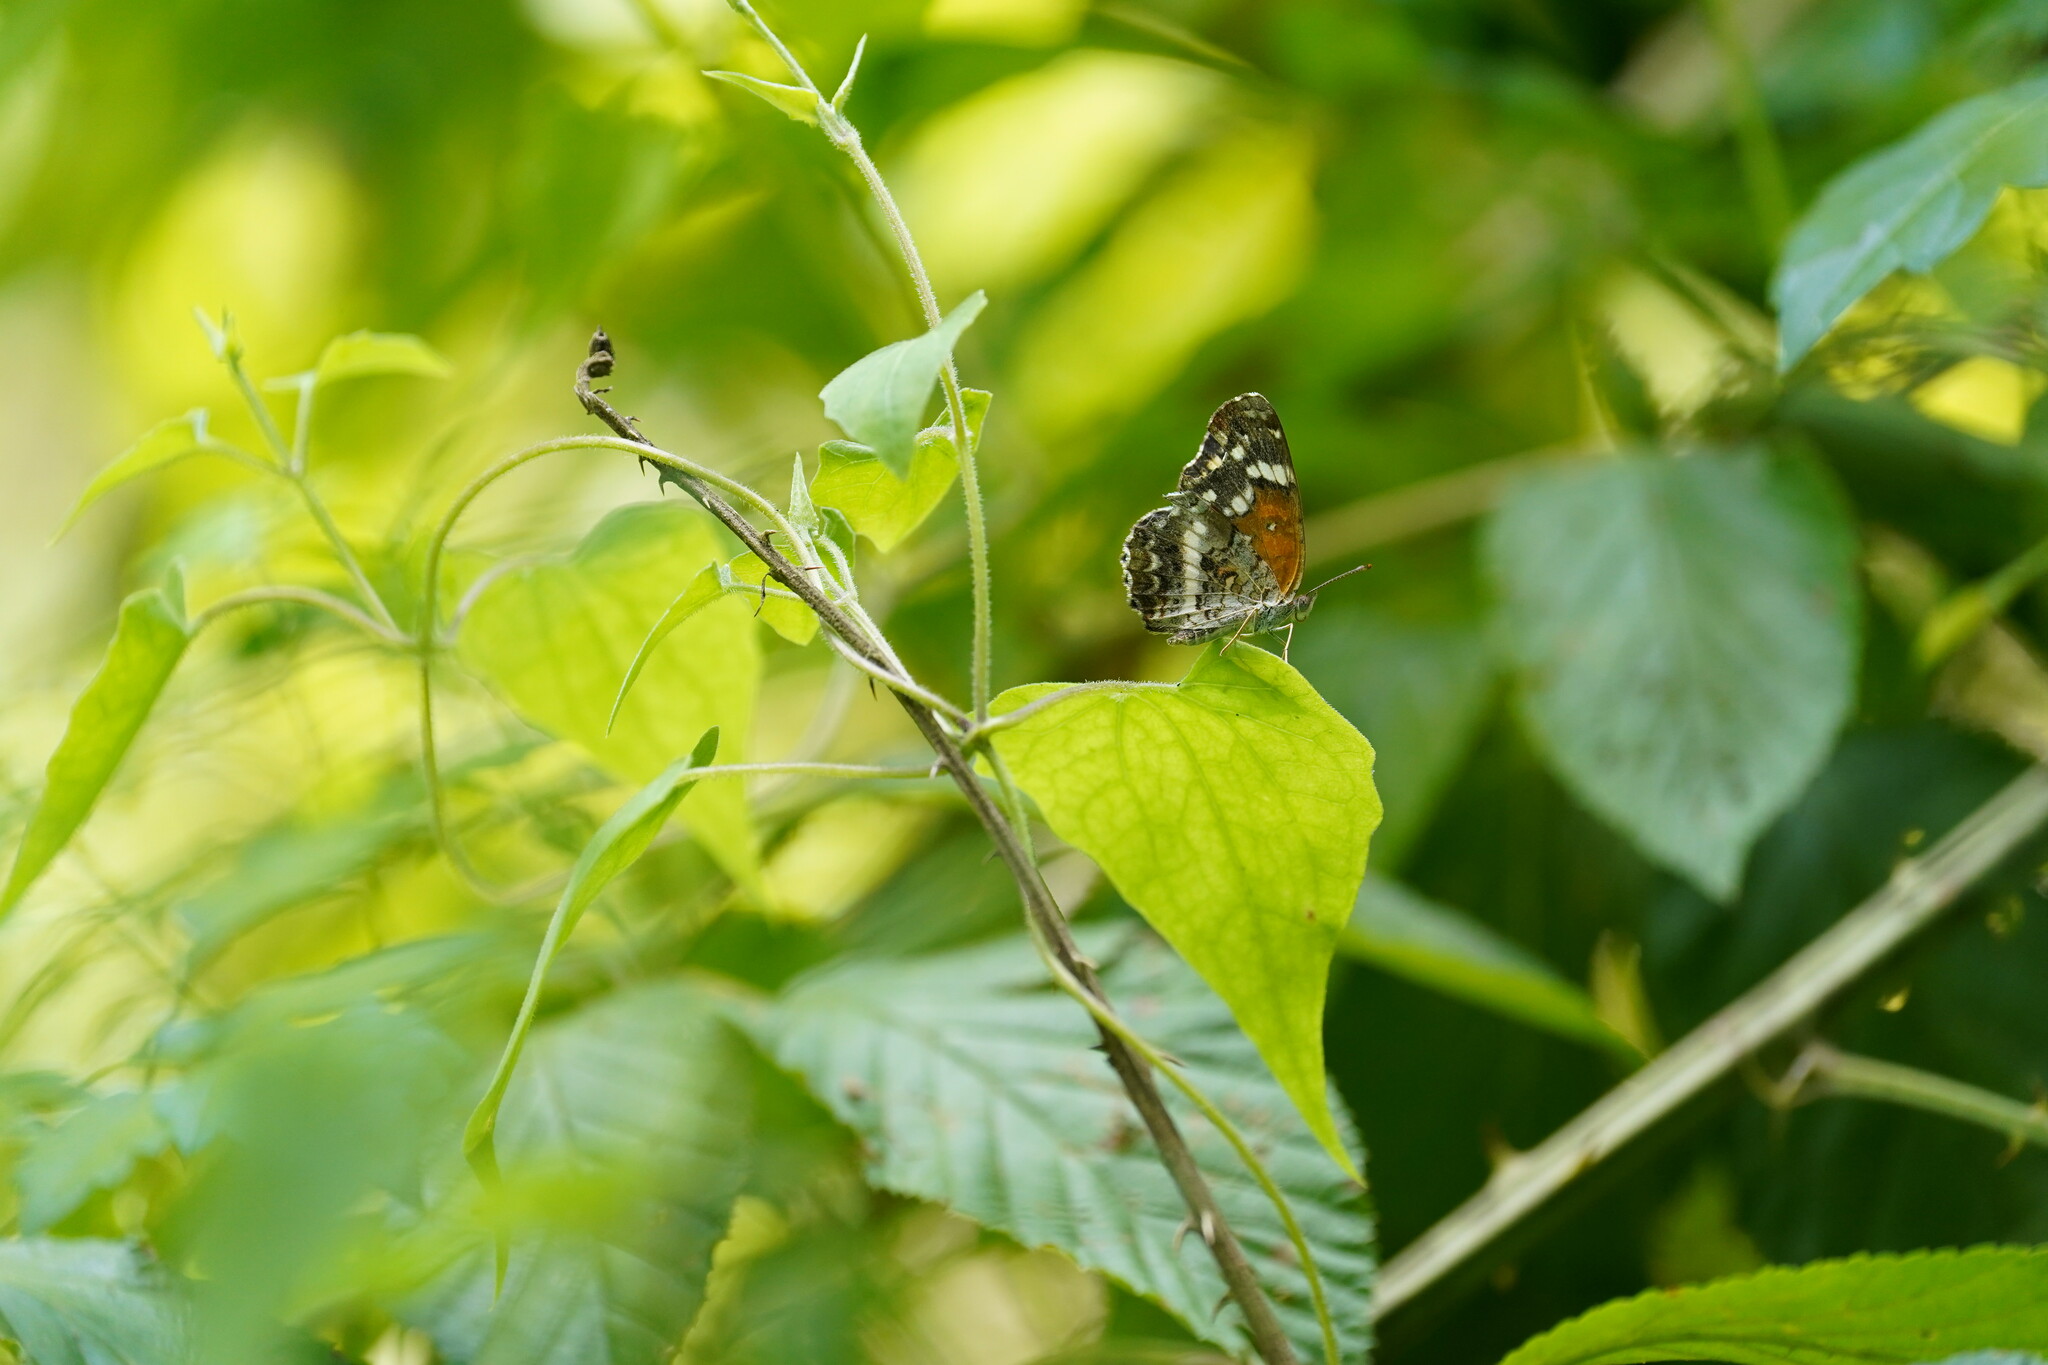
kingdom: Animalia
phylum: Arthropoda
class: Insecta
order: Lepidoptera
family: Nymphalidae
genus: Anthanassa
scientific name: Anthanassa taxana
